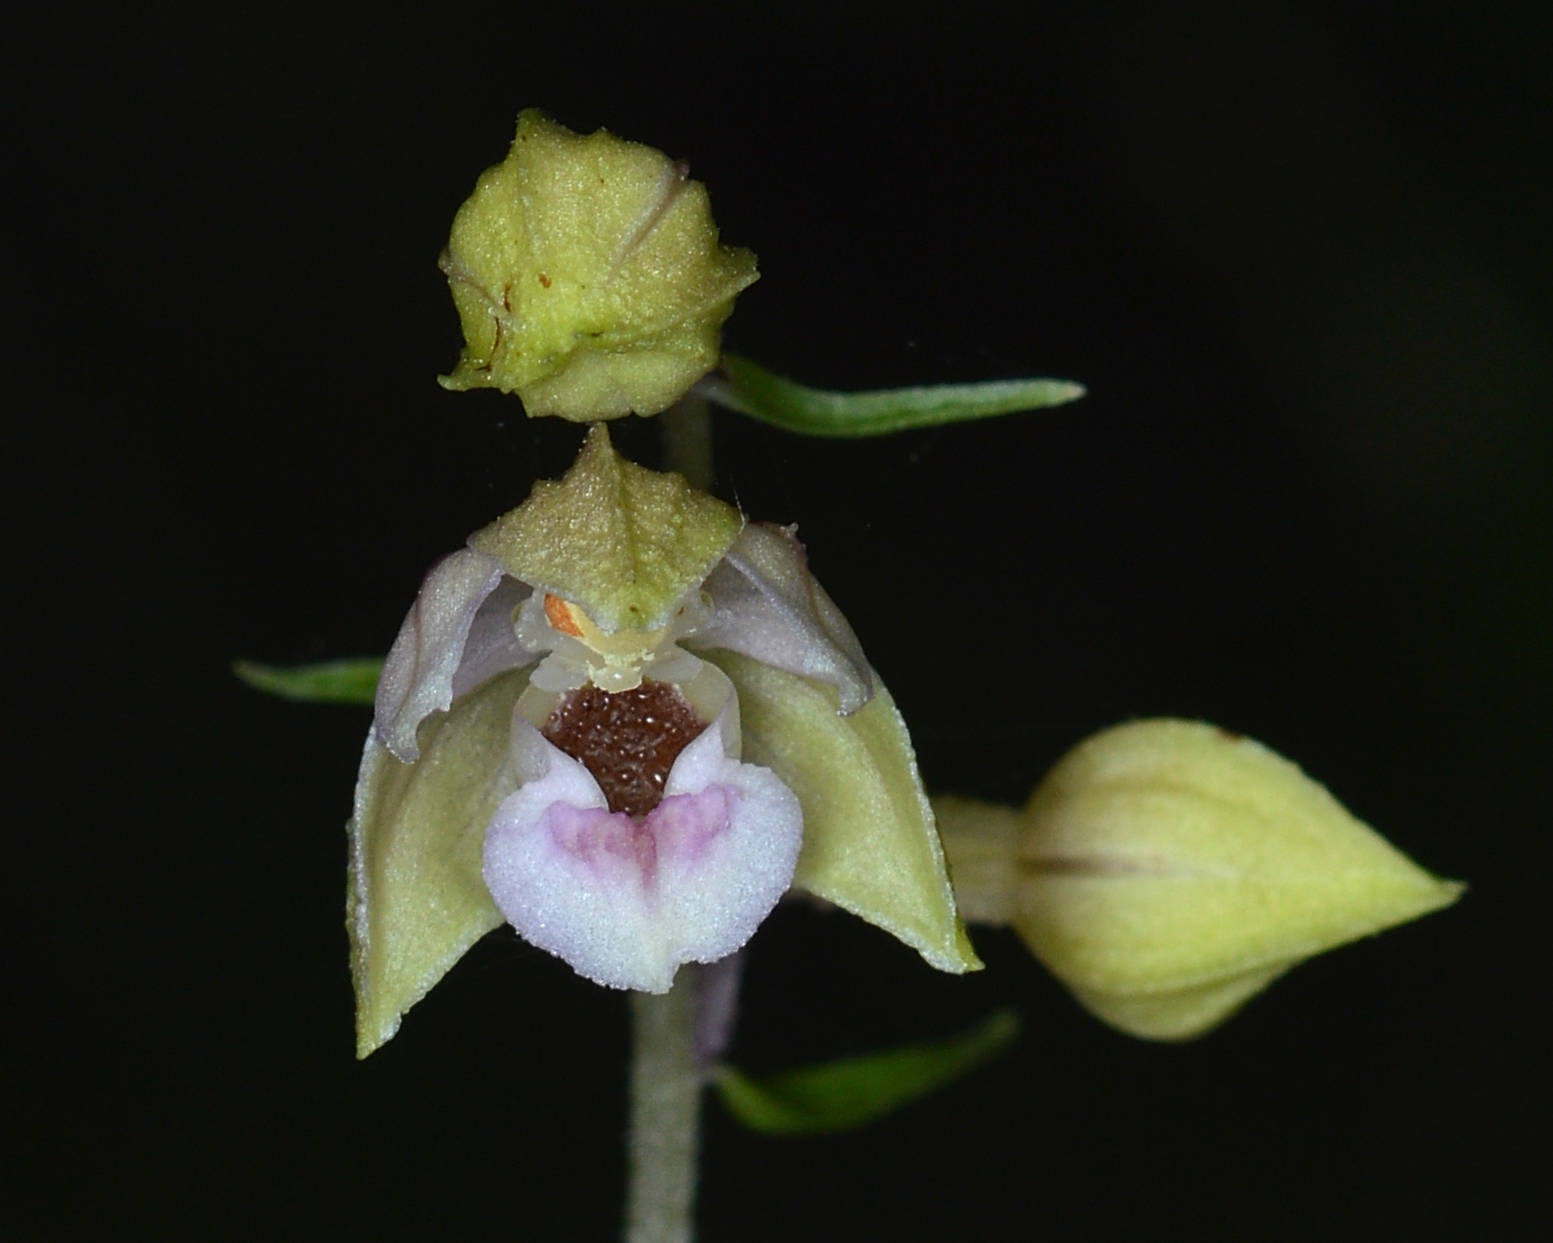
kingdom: Plantae
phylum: Tracheophyta
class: Liliopsida
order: Asparagales
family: Orchidaceae
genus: Epipactis
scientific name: Epipactis helleborine
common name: Broad-leaved helleborine
